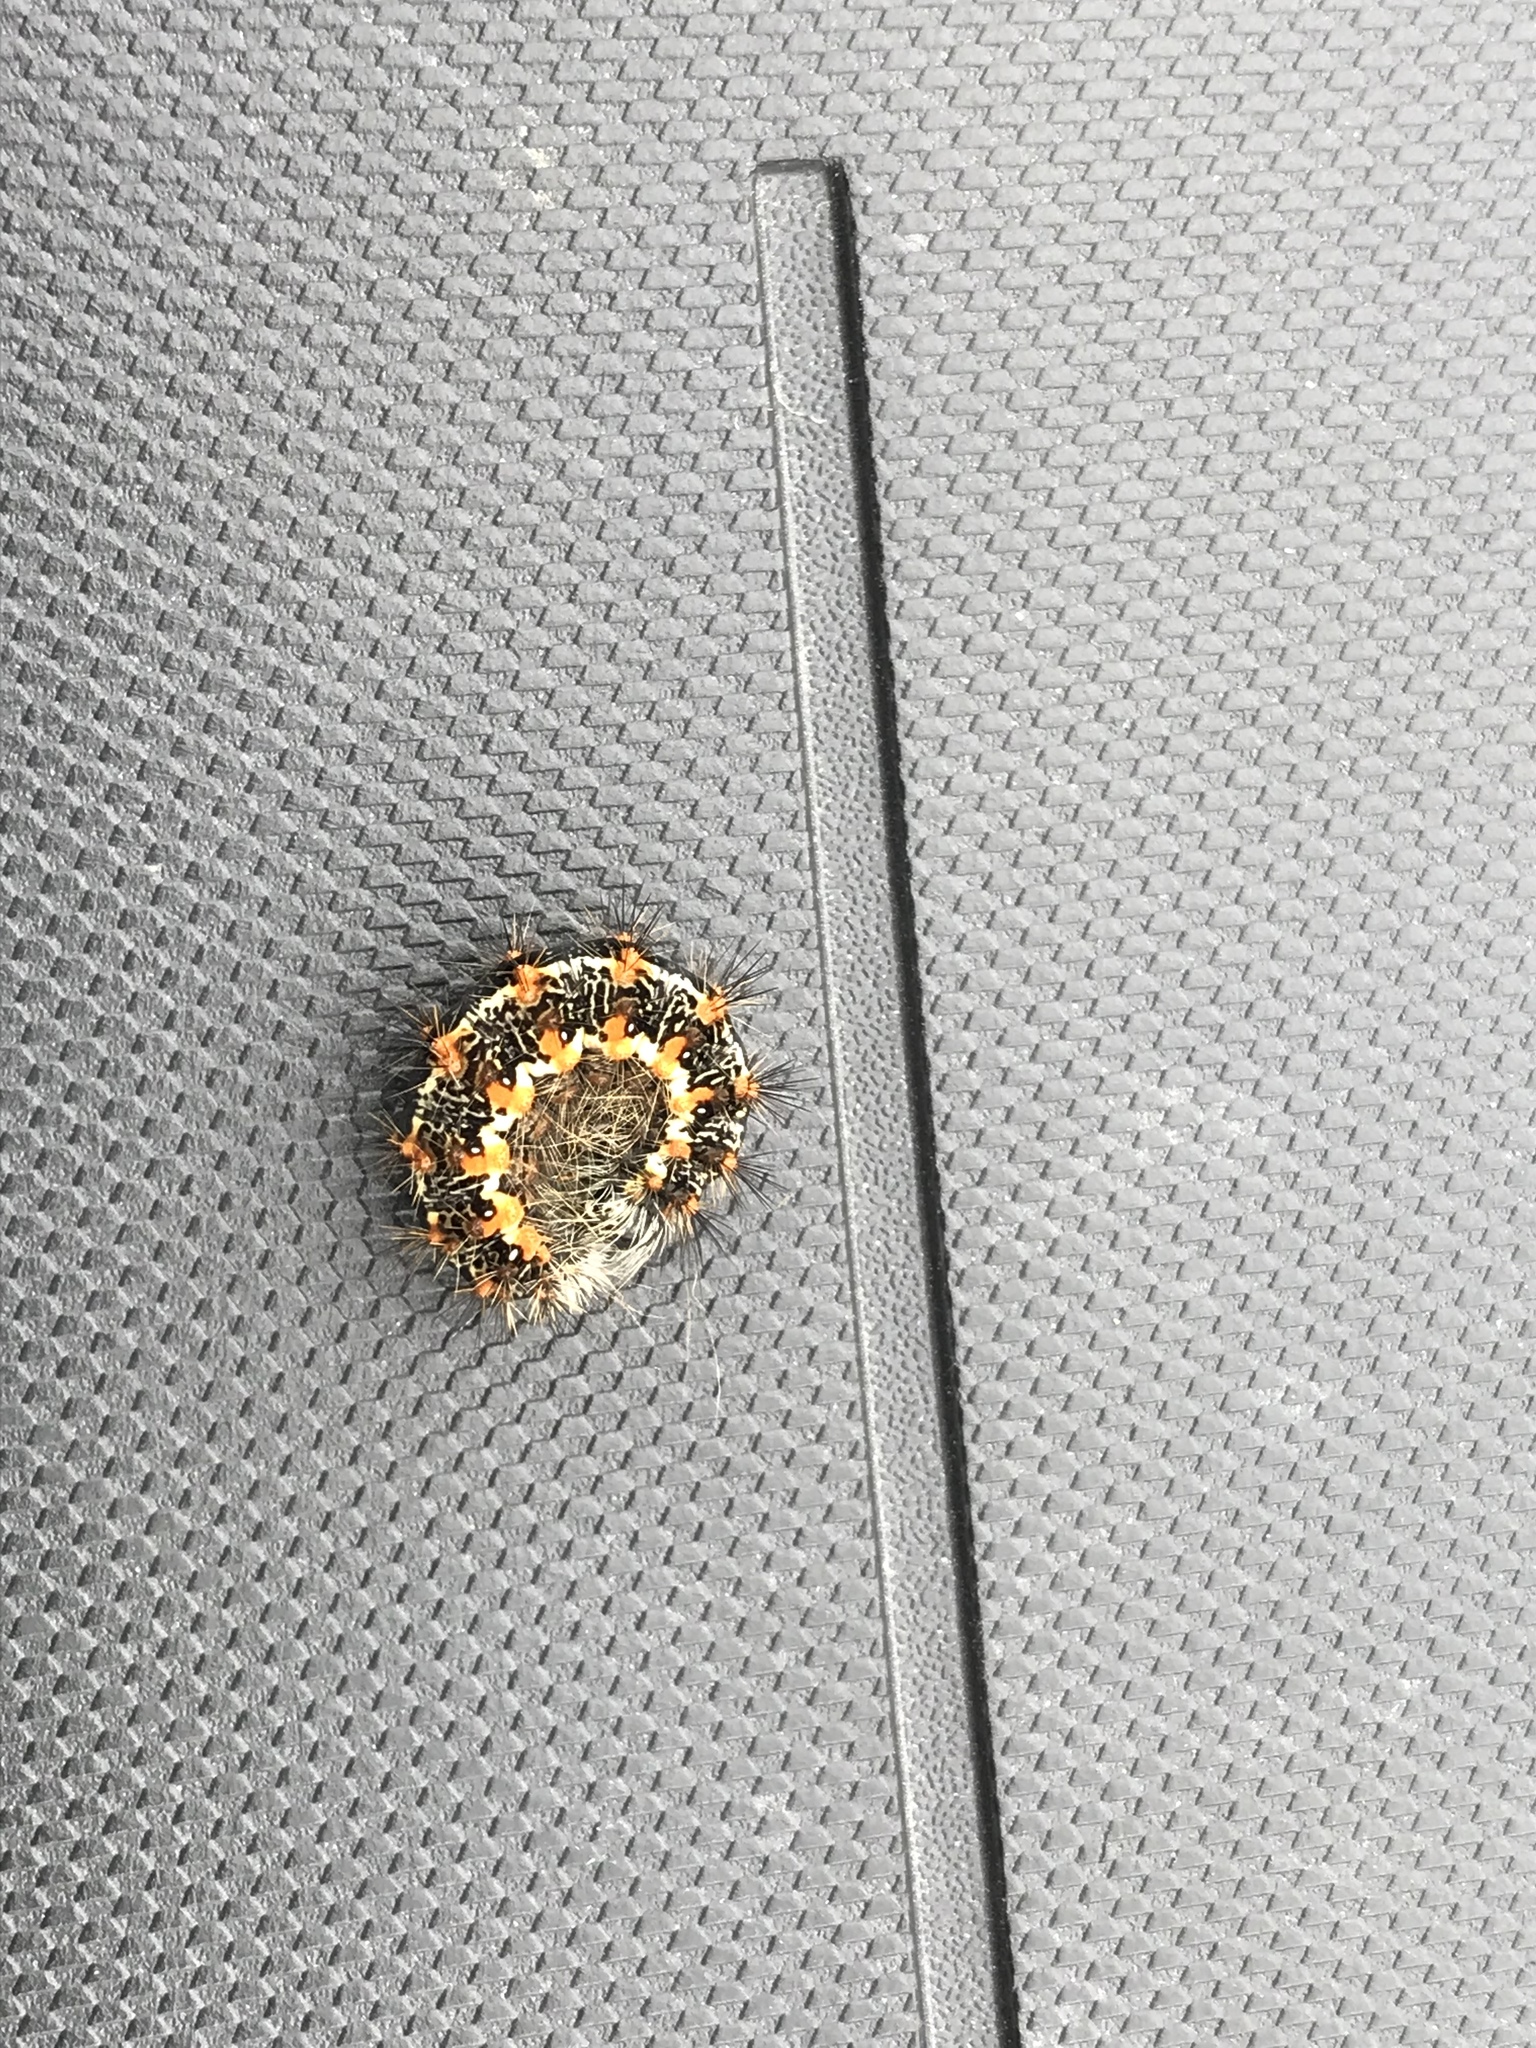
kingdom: Animalia
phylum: Arthropoda
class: Insecta
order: Lepidoptera
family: Noctuidae
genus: Acronicta
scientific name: Acronicta insularis
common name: Henry's marsh moth
